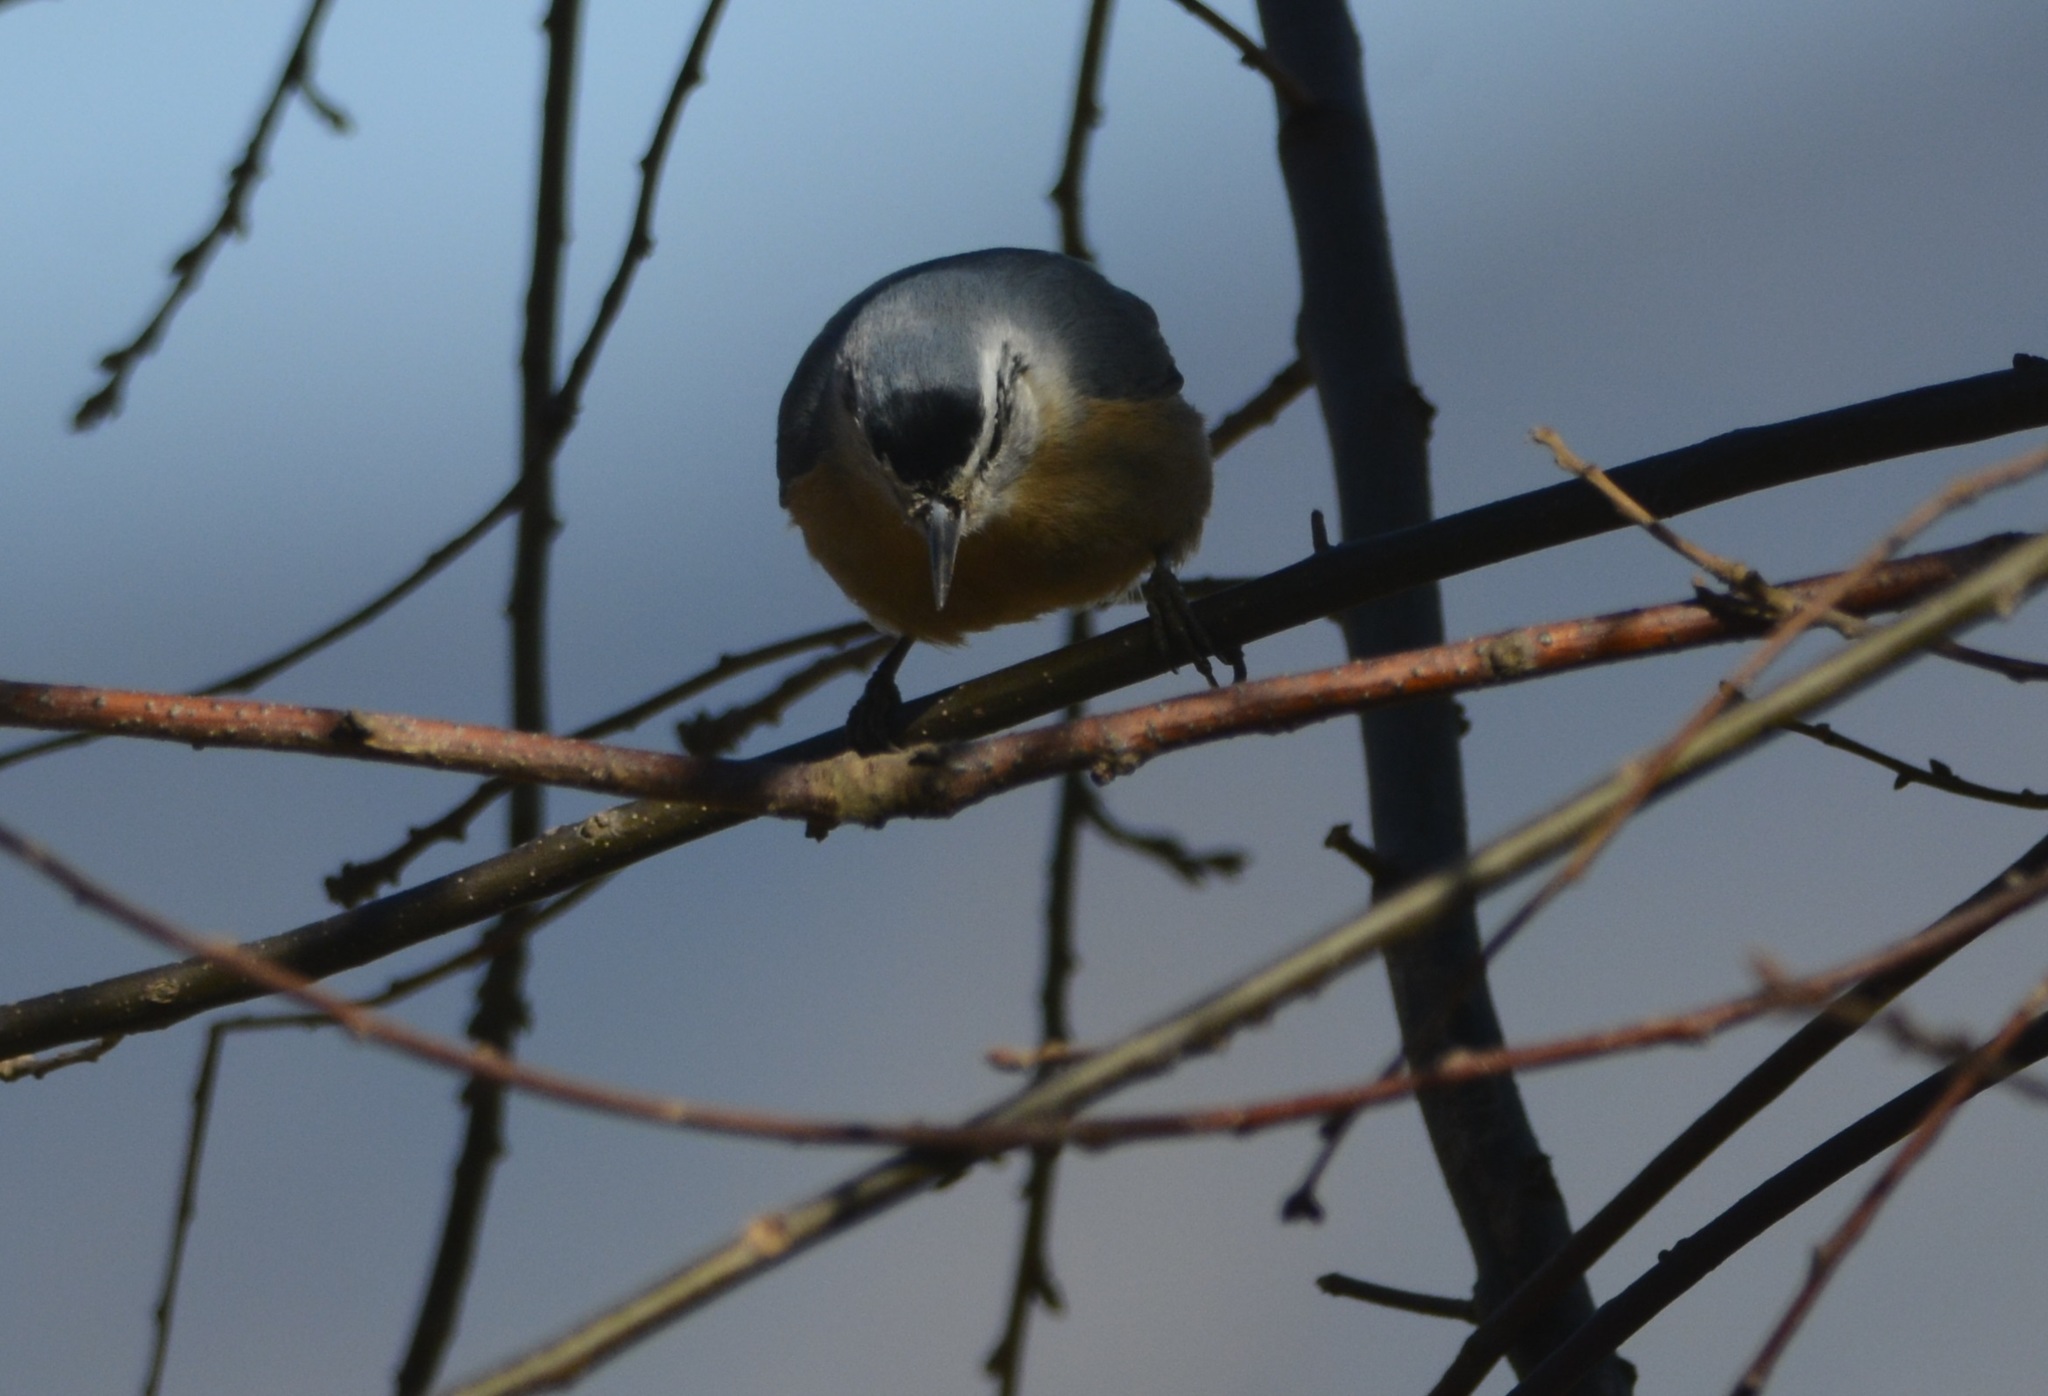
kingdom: Animalia
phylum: Chordata
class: Aves
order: Passeriformes
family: Sittidae
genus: Sitta
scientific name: Sitta ledanti
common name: Algerian nuthatch
